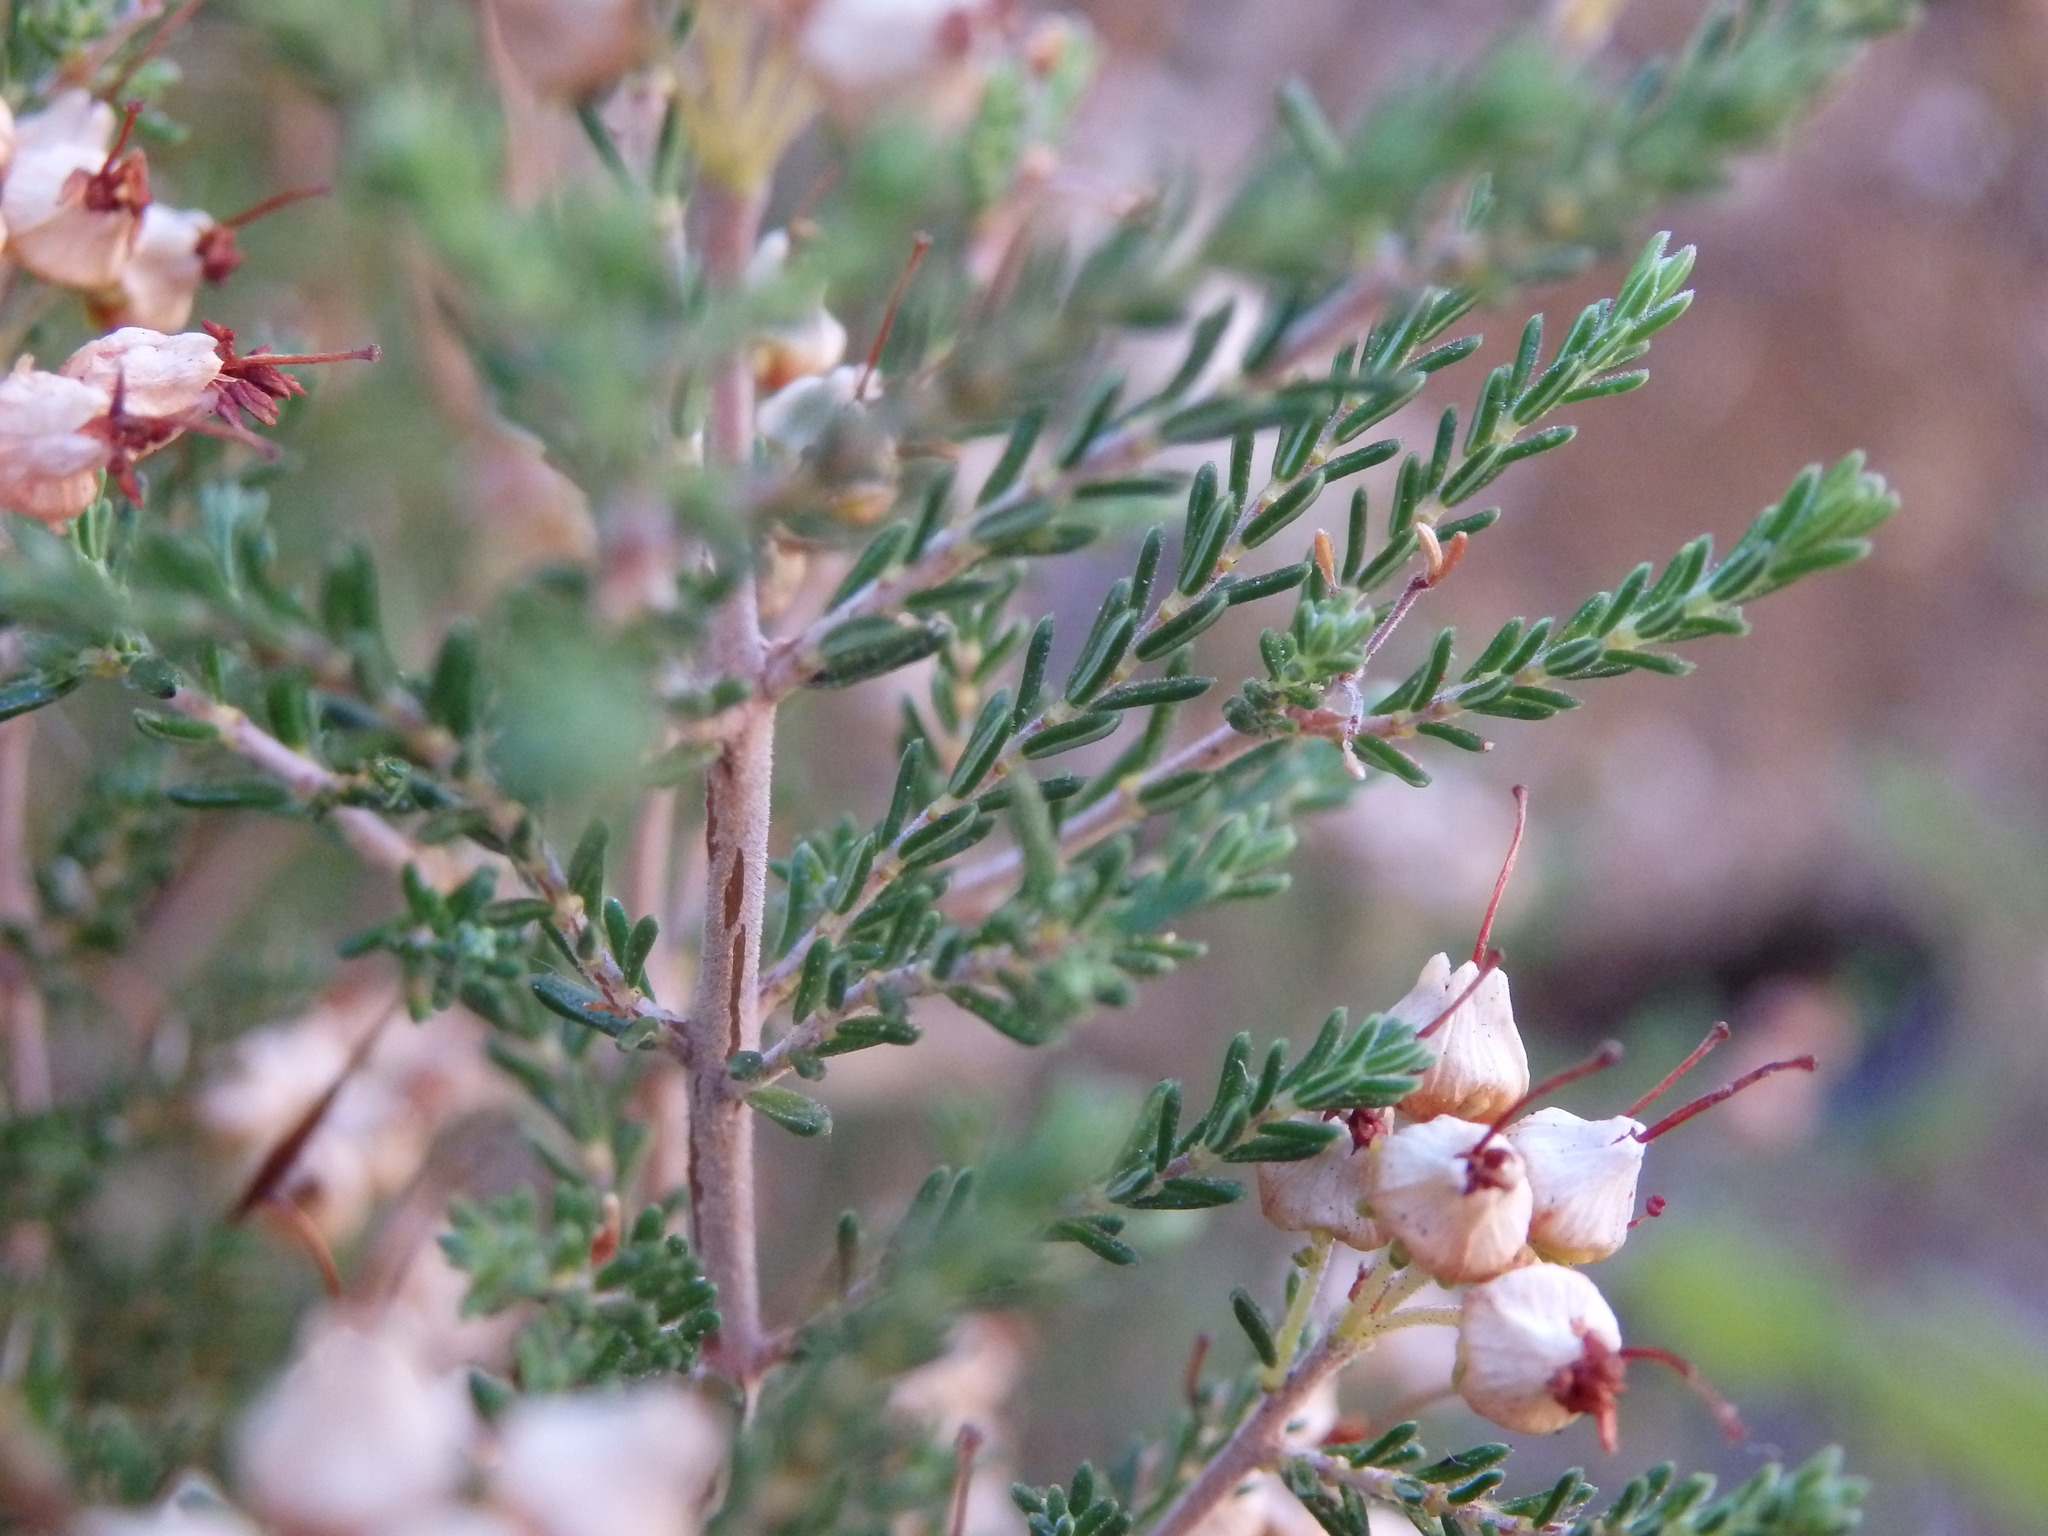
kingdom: Plantae
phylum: Tracheophyta
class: Magnoliopsida
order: Ericales
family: Ericaceae
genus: Erica
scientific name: Erica umbellata
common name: Dwarf spanish heath
